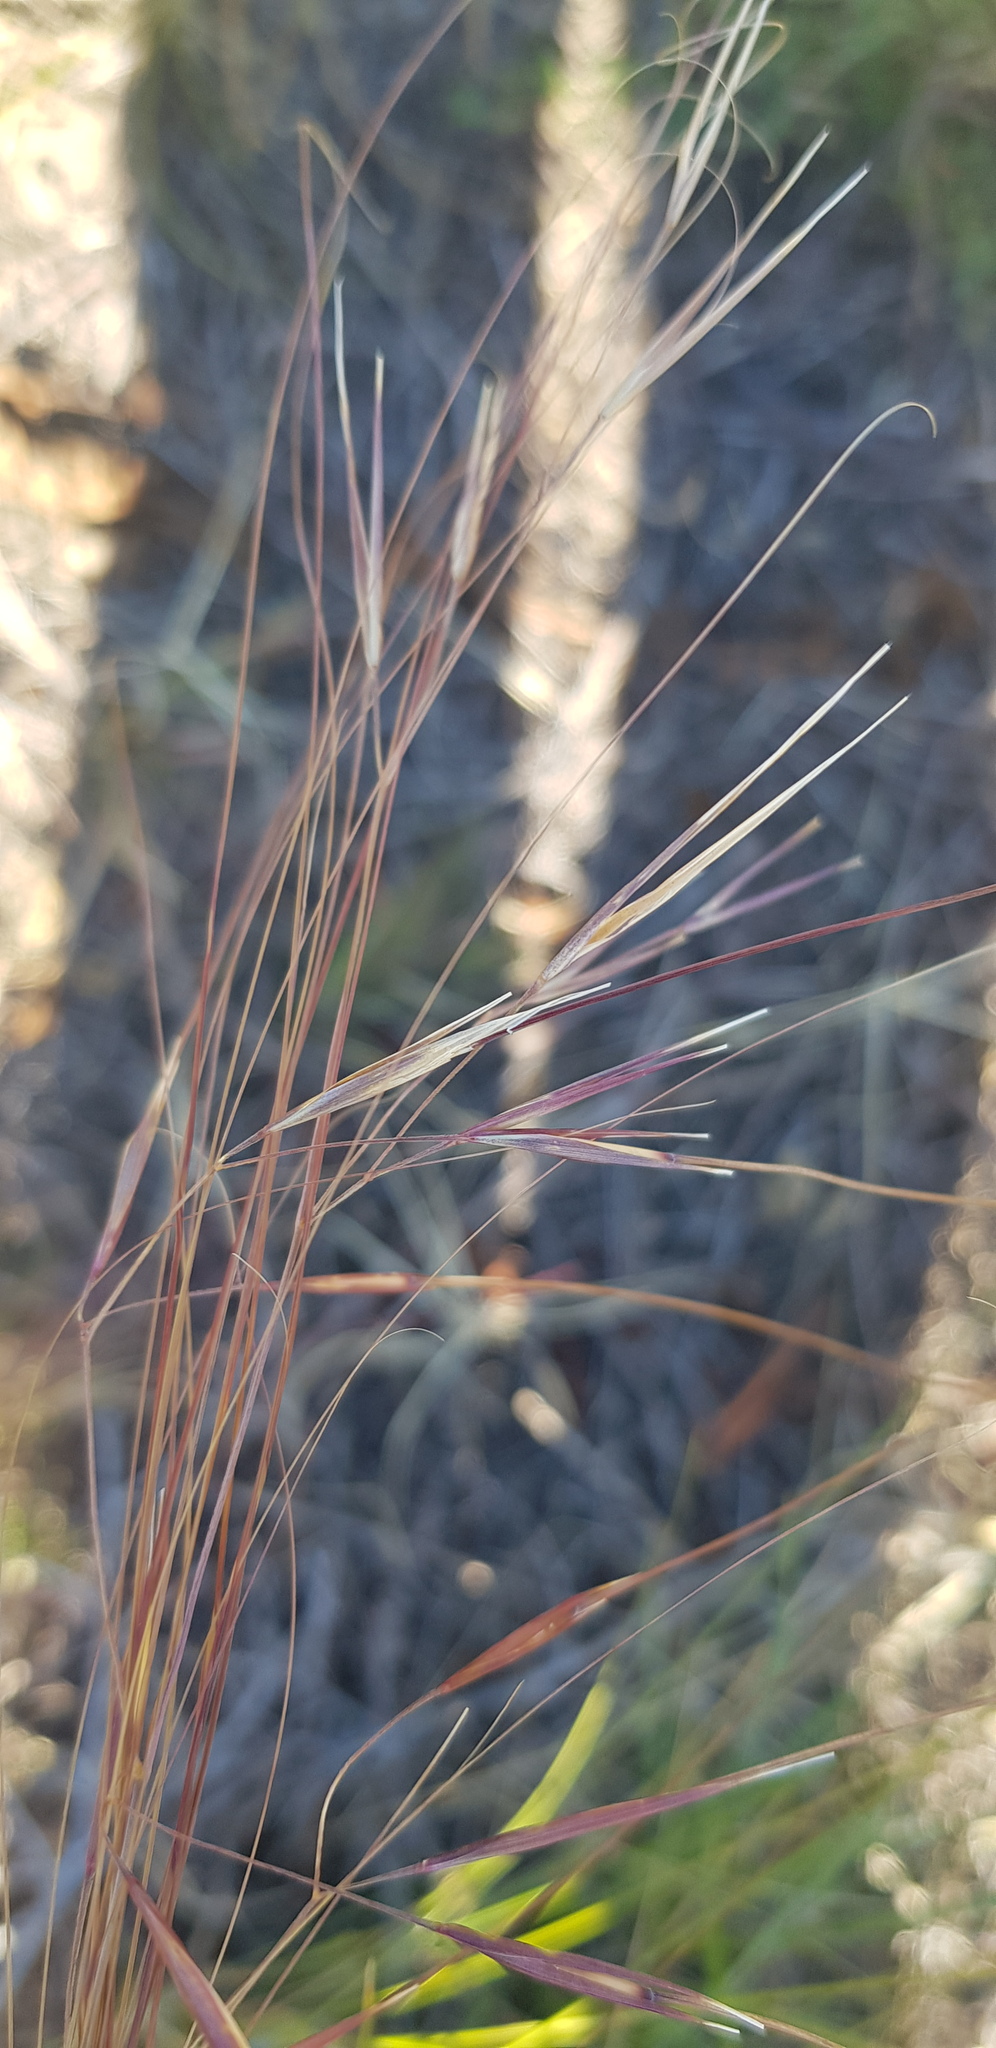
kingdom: Plantae
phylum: Tracheophyta
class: Liliopsida
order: Poales
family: Poaceae
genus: Stipa
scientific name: Stipa krylovii
